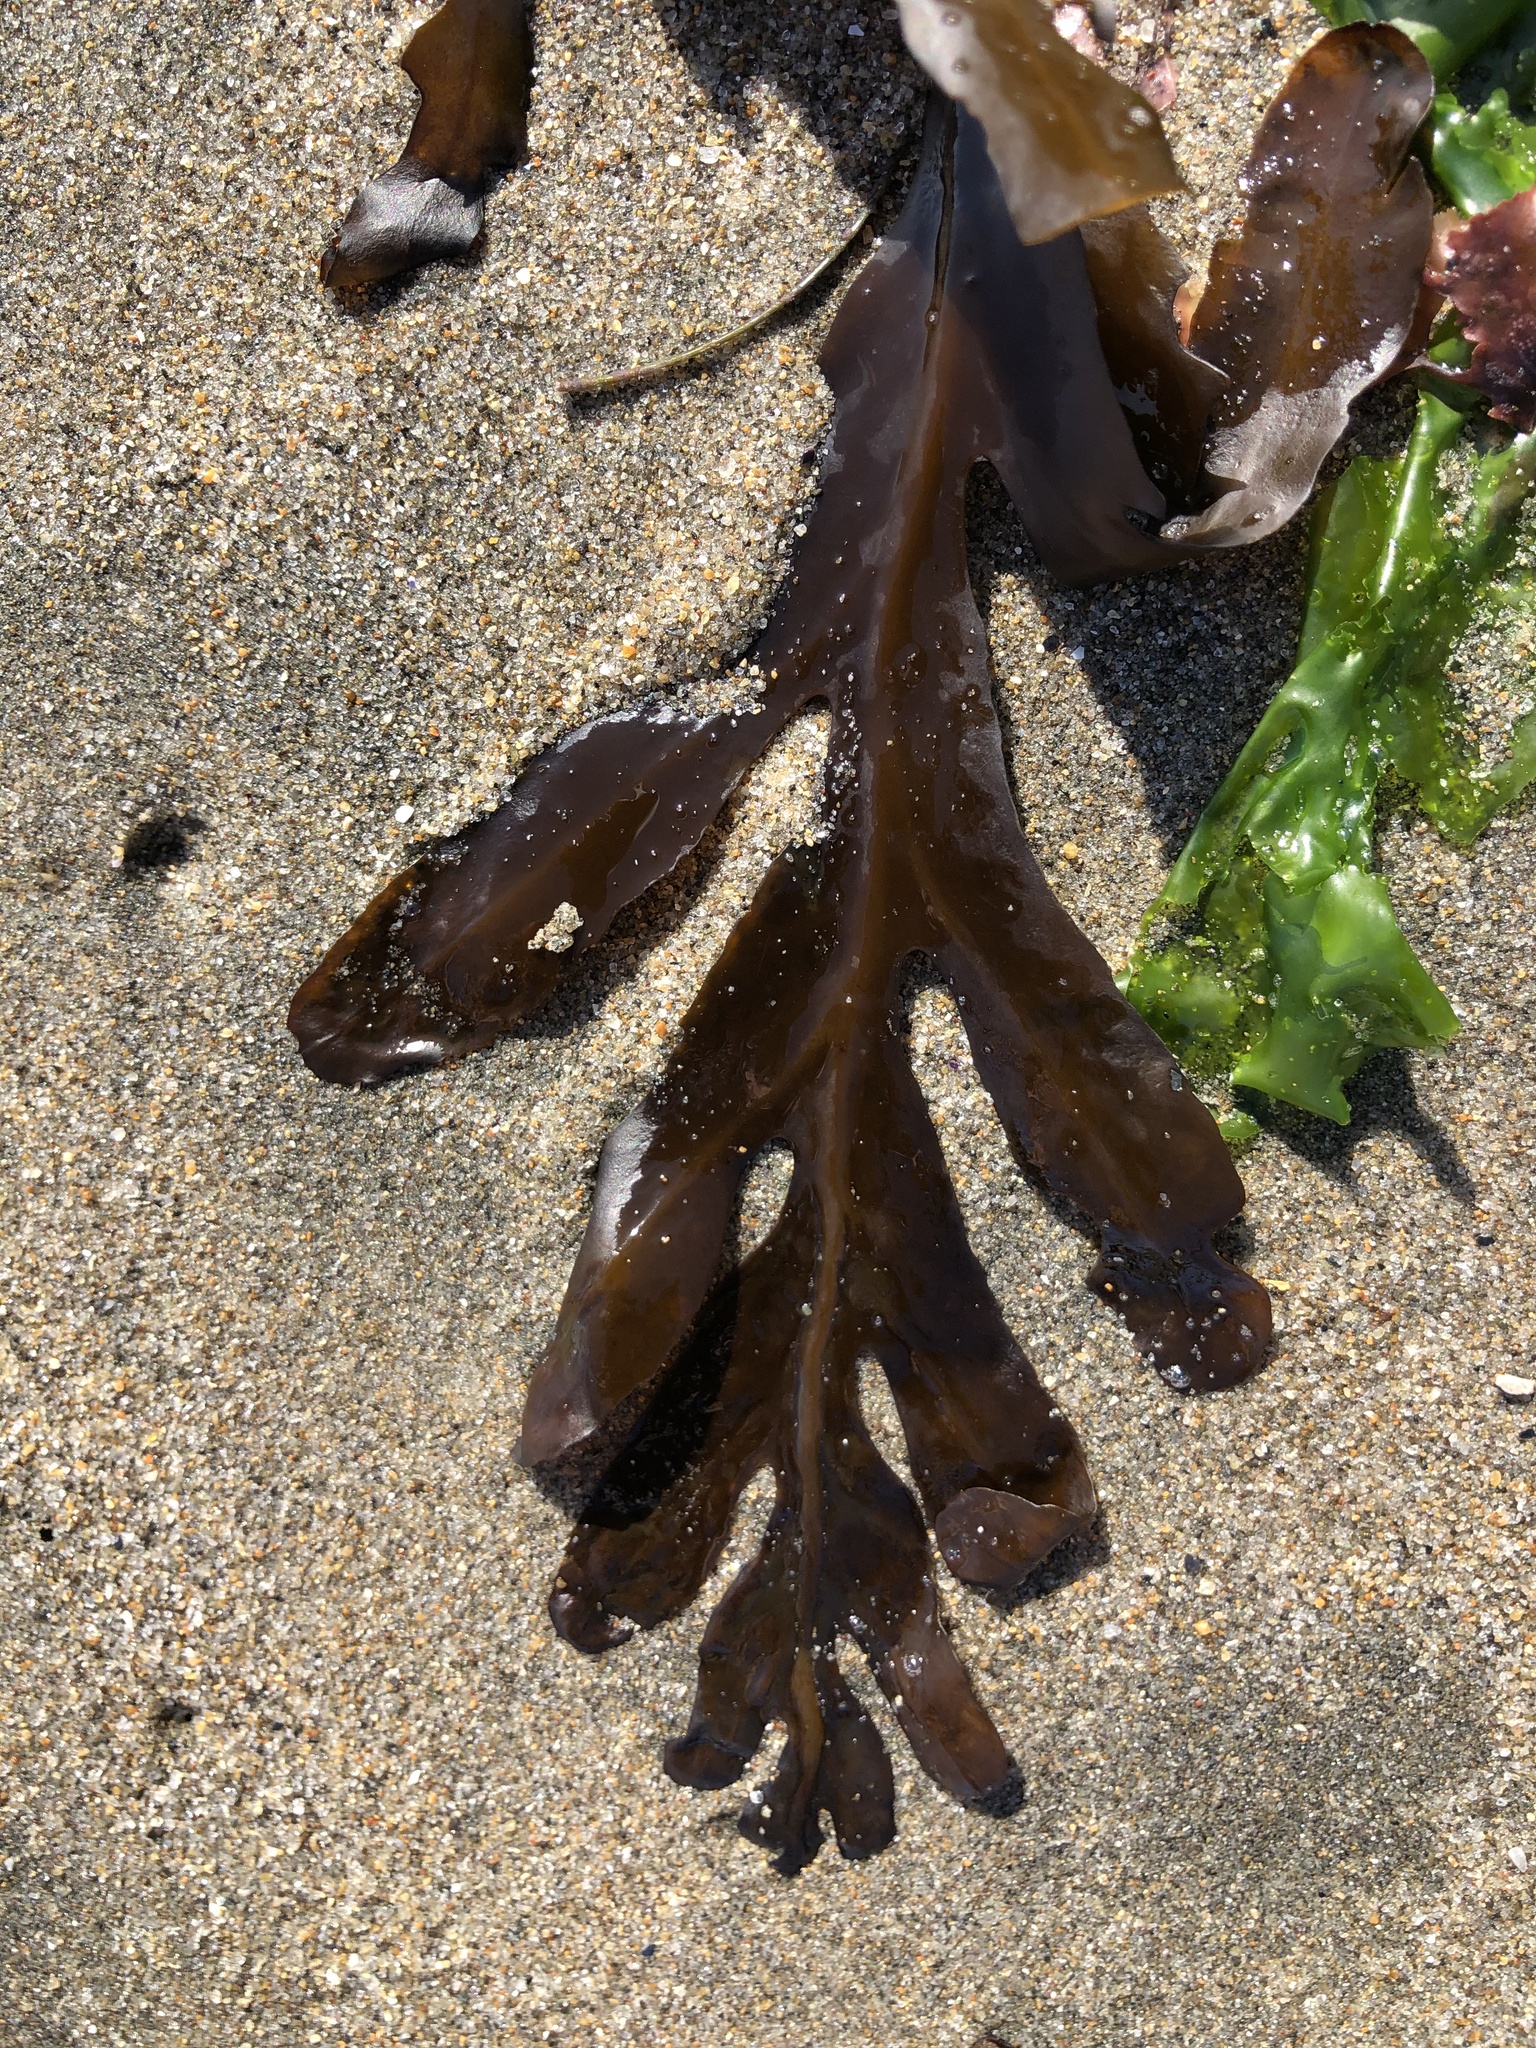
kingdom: Chromista
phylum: Ochrophyta
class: Phaeophyceae
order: Fucales
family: Sargassaceae
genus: Stephanocystis
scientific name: Stephanocystis
